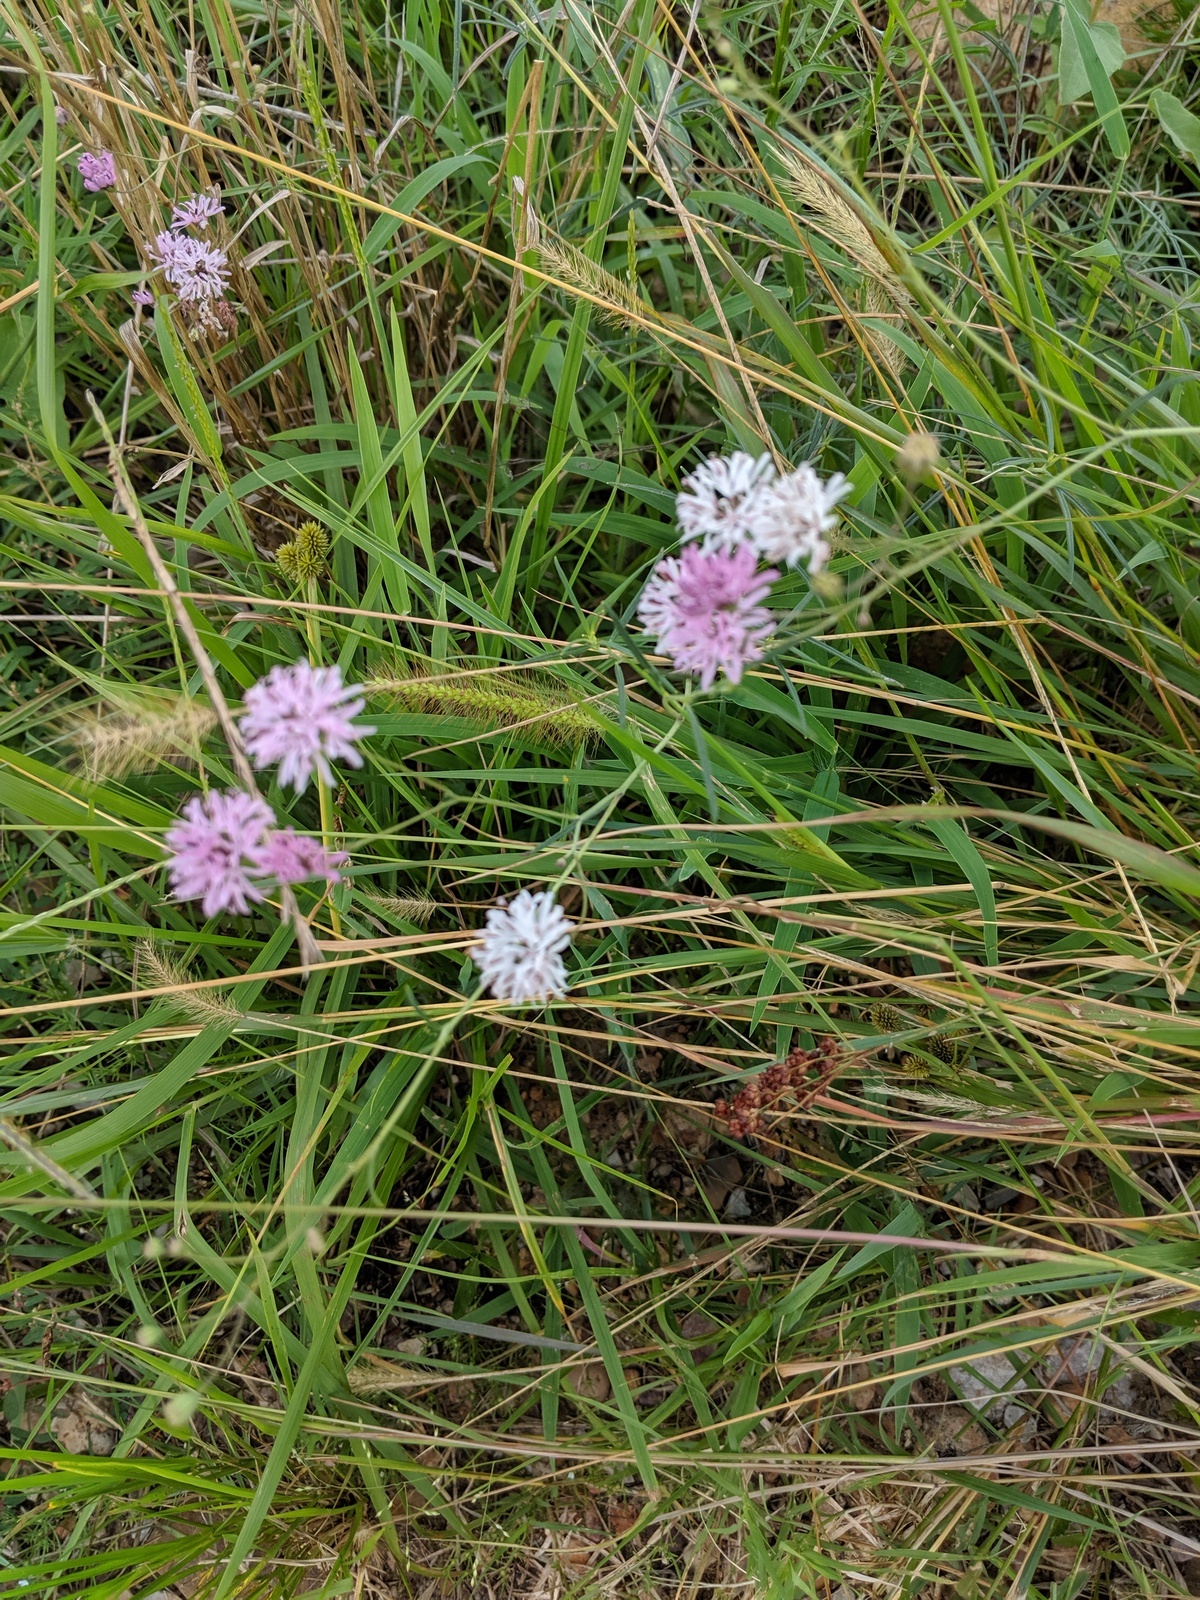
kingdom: Plantae
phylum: Tracheophyta
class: Magnoliopsida
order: Asterales
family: Asteraceae
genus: Palafoxia
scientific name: Palafoxia callosa
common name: Small palafox
